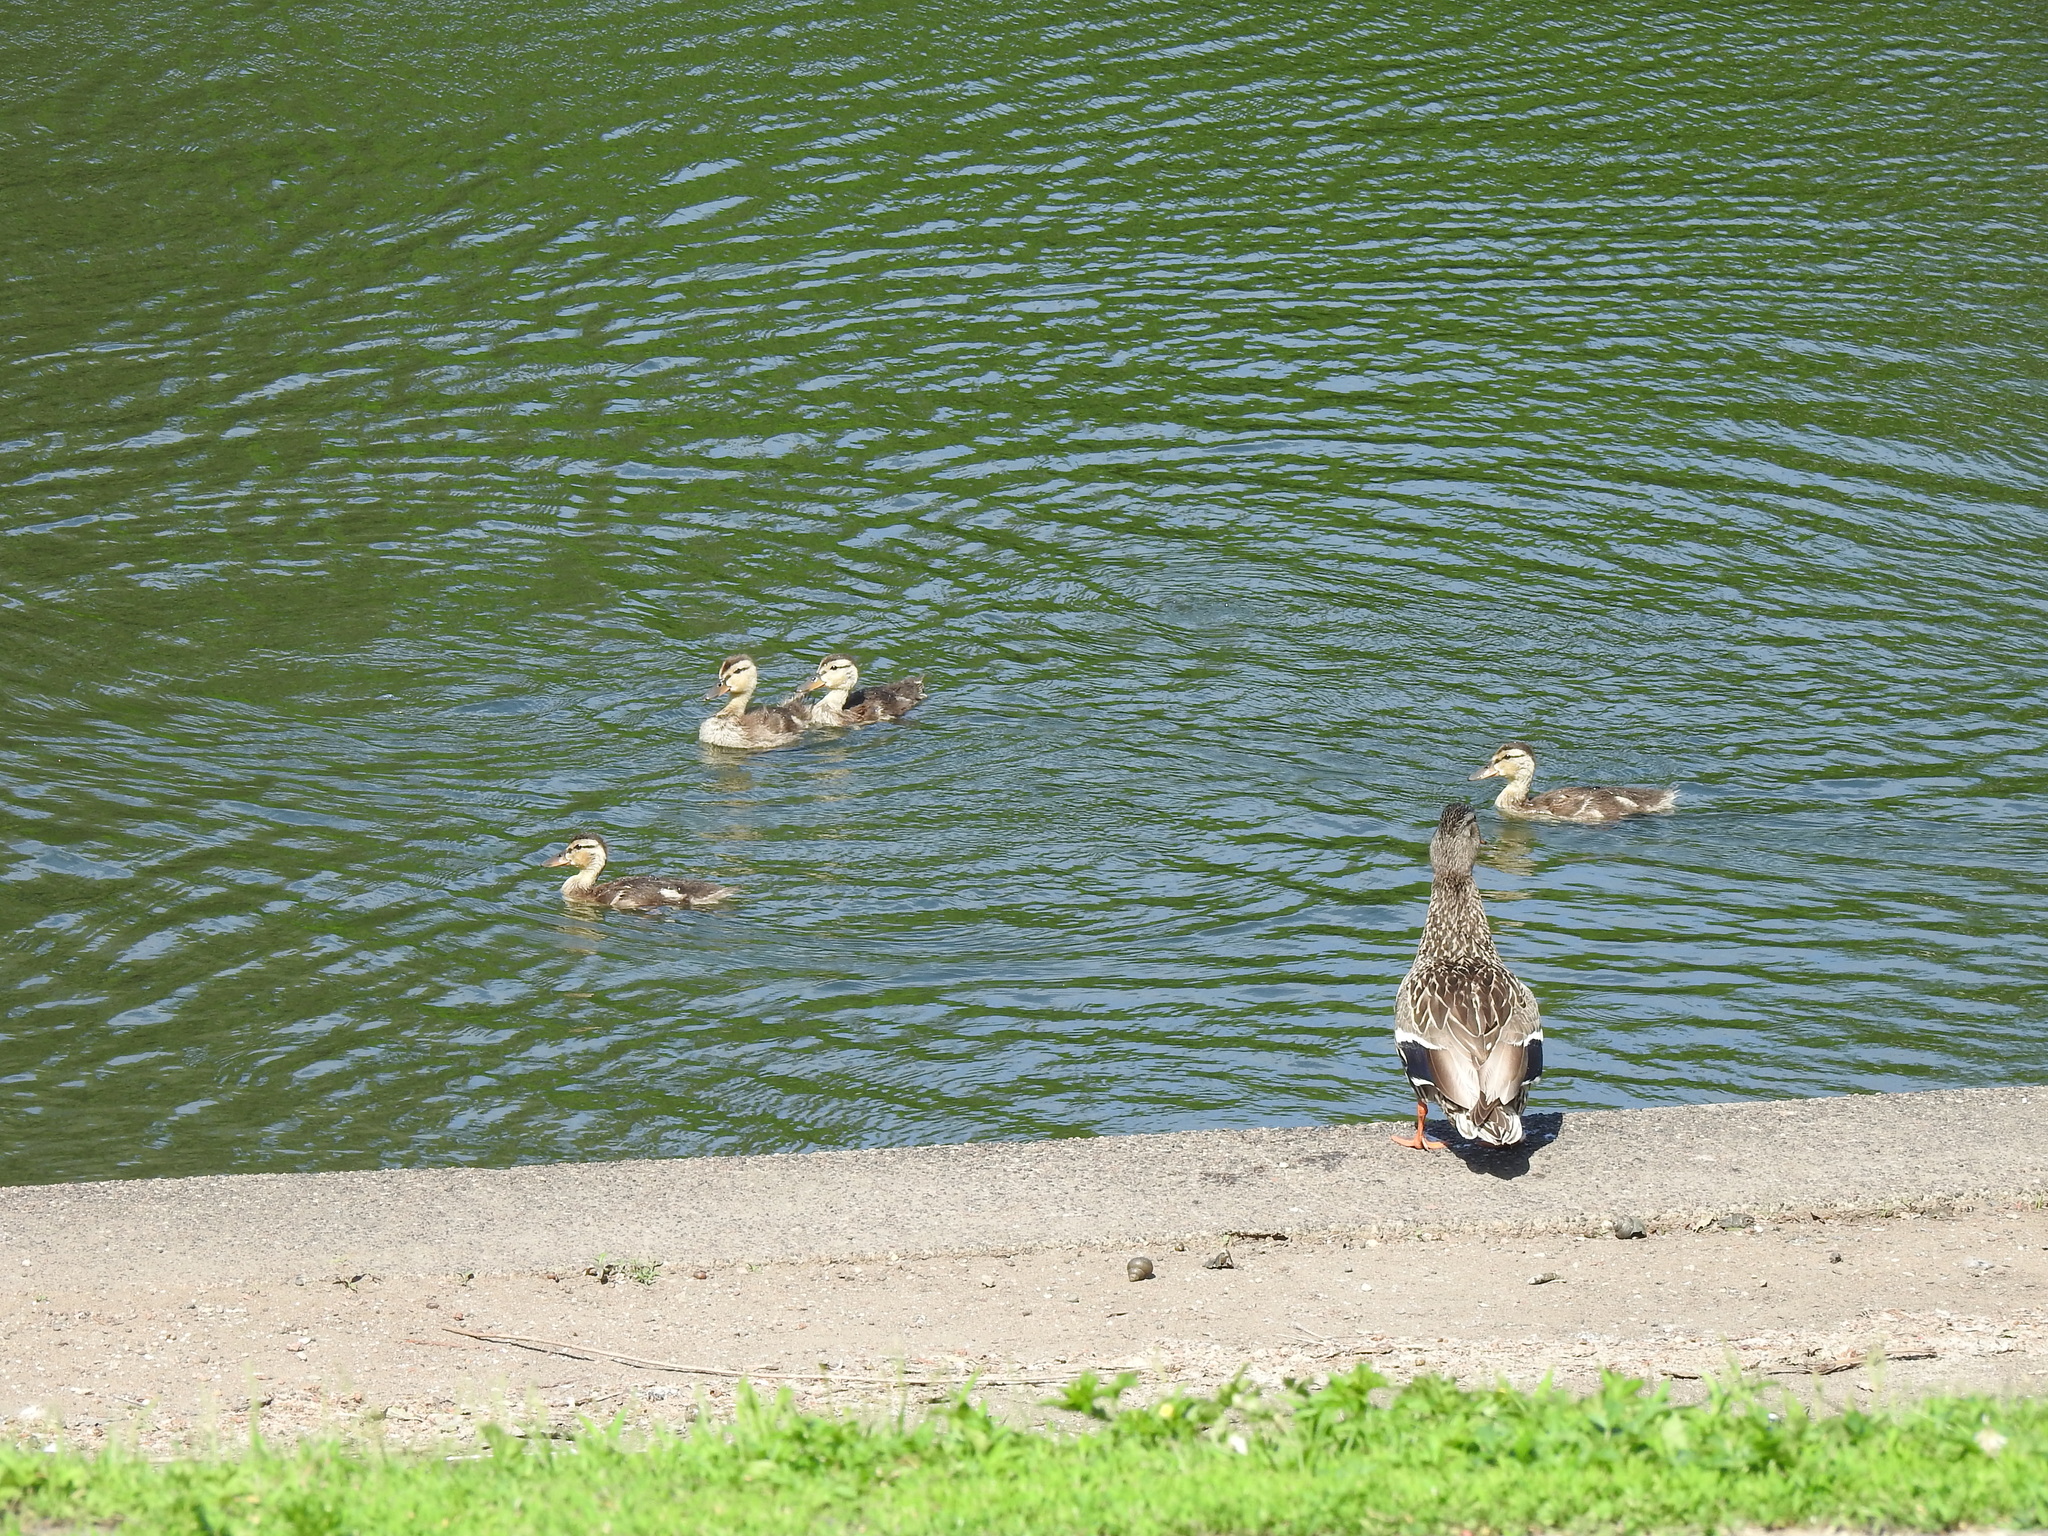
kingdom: Animalia
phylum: Chordata
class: Aves
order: Anseriformes
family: Anatidae
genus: Anas
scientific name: Anas platyrhynchos
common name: Mallard
